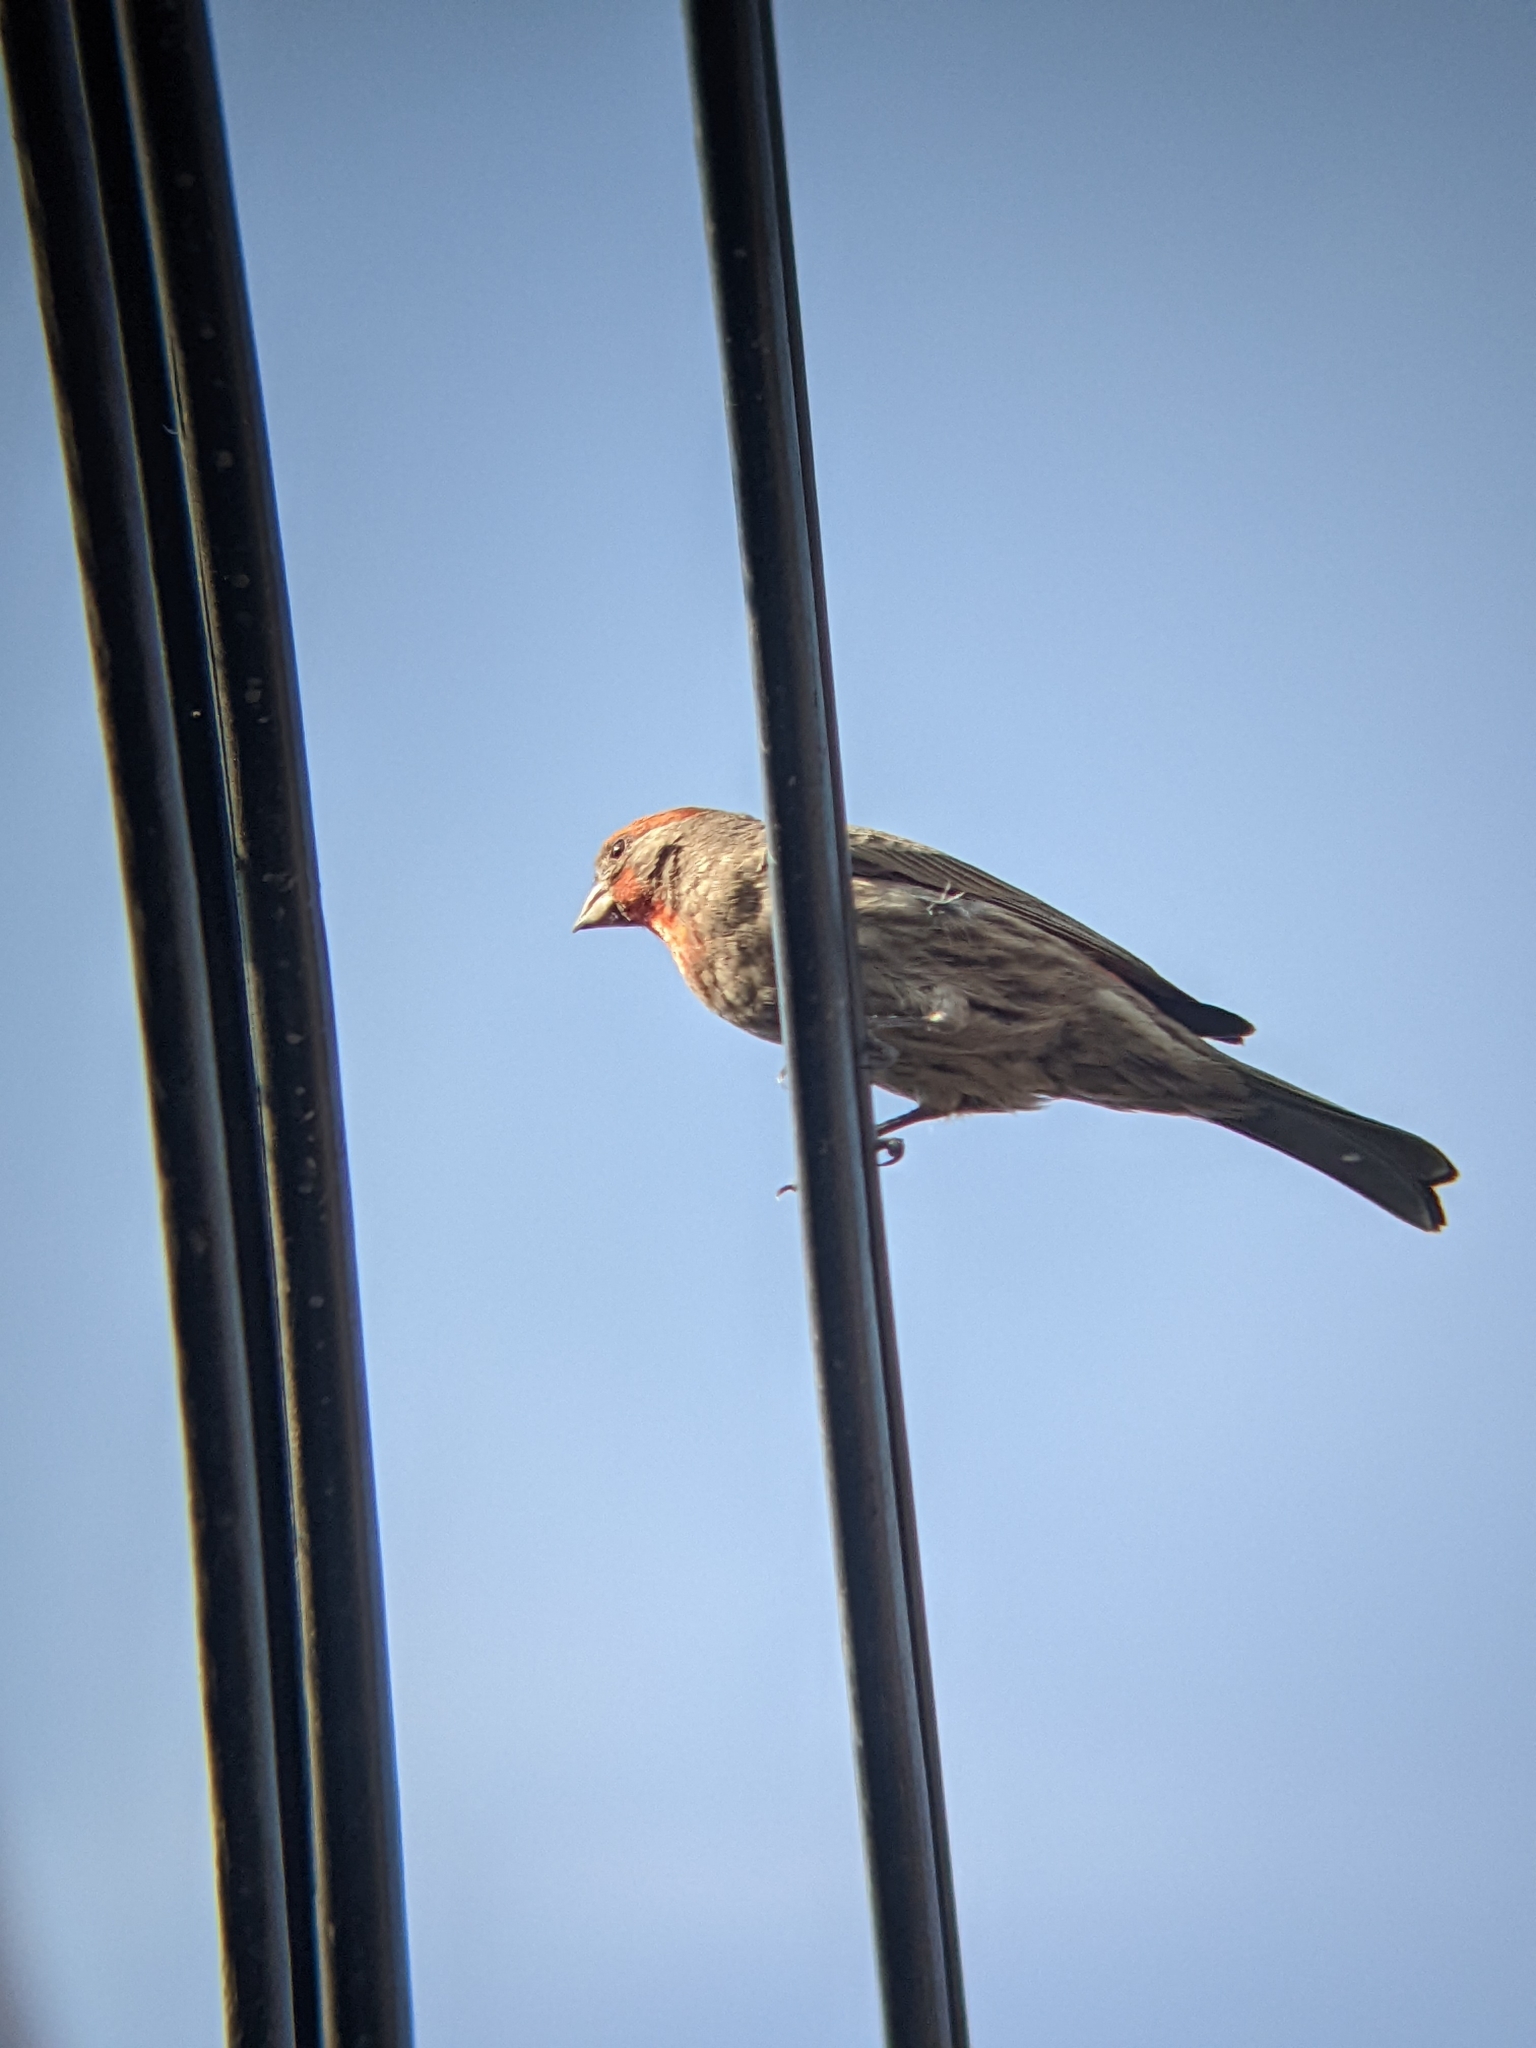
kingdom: Animalia
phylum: Chordata
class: Aves
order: Passeriformes
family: Fringillidae
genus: Haemorhous
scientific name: Haemorhous mexicanus
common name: House finch
